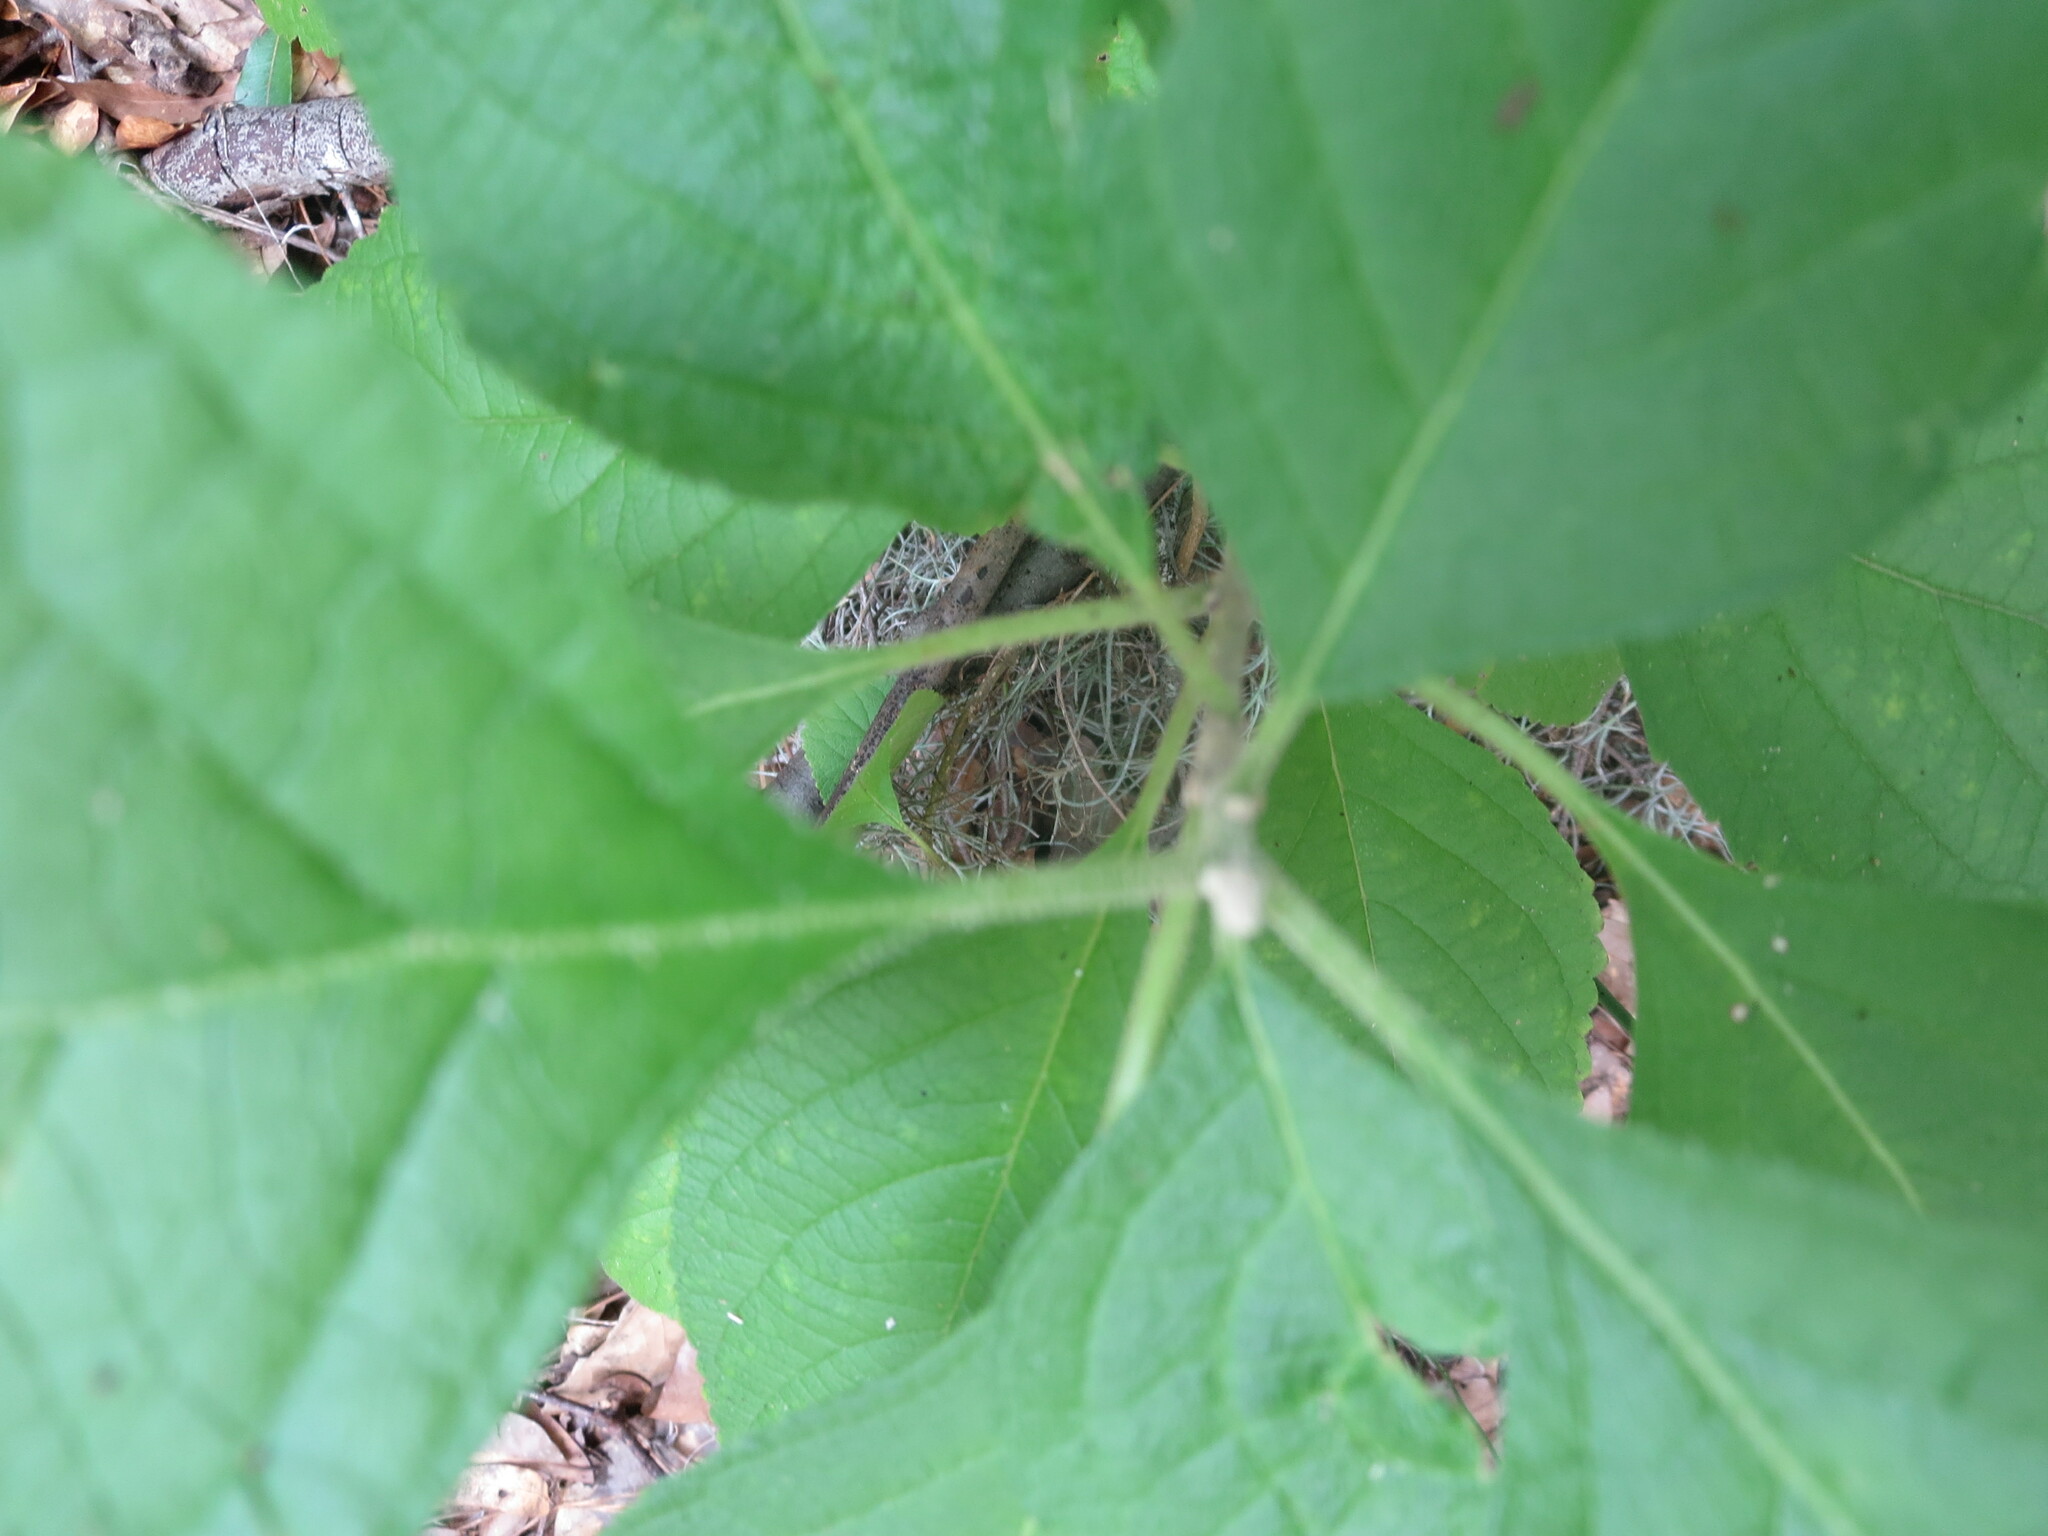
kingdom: Plantae
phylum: Tracheophyta
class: Magnoliopsida
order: Lamiales
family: Lamiaceae
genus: Callicarpa
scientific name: Callicarpa americana
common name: American beautyberry
